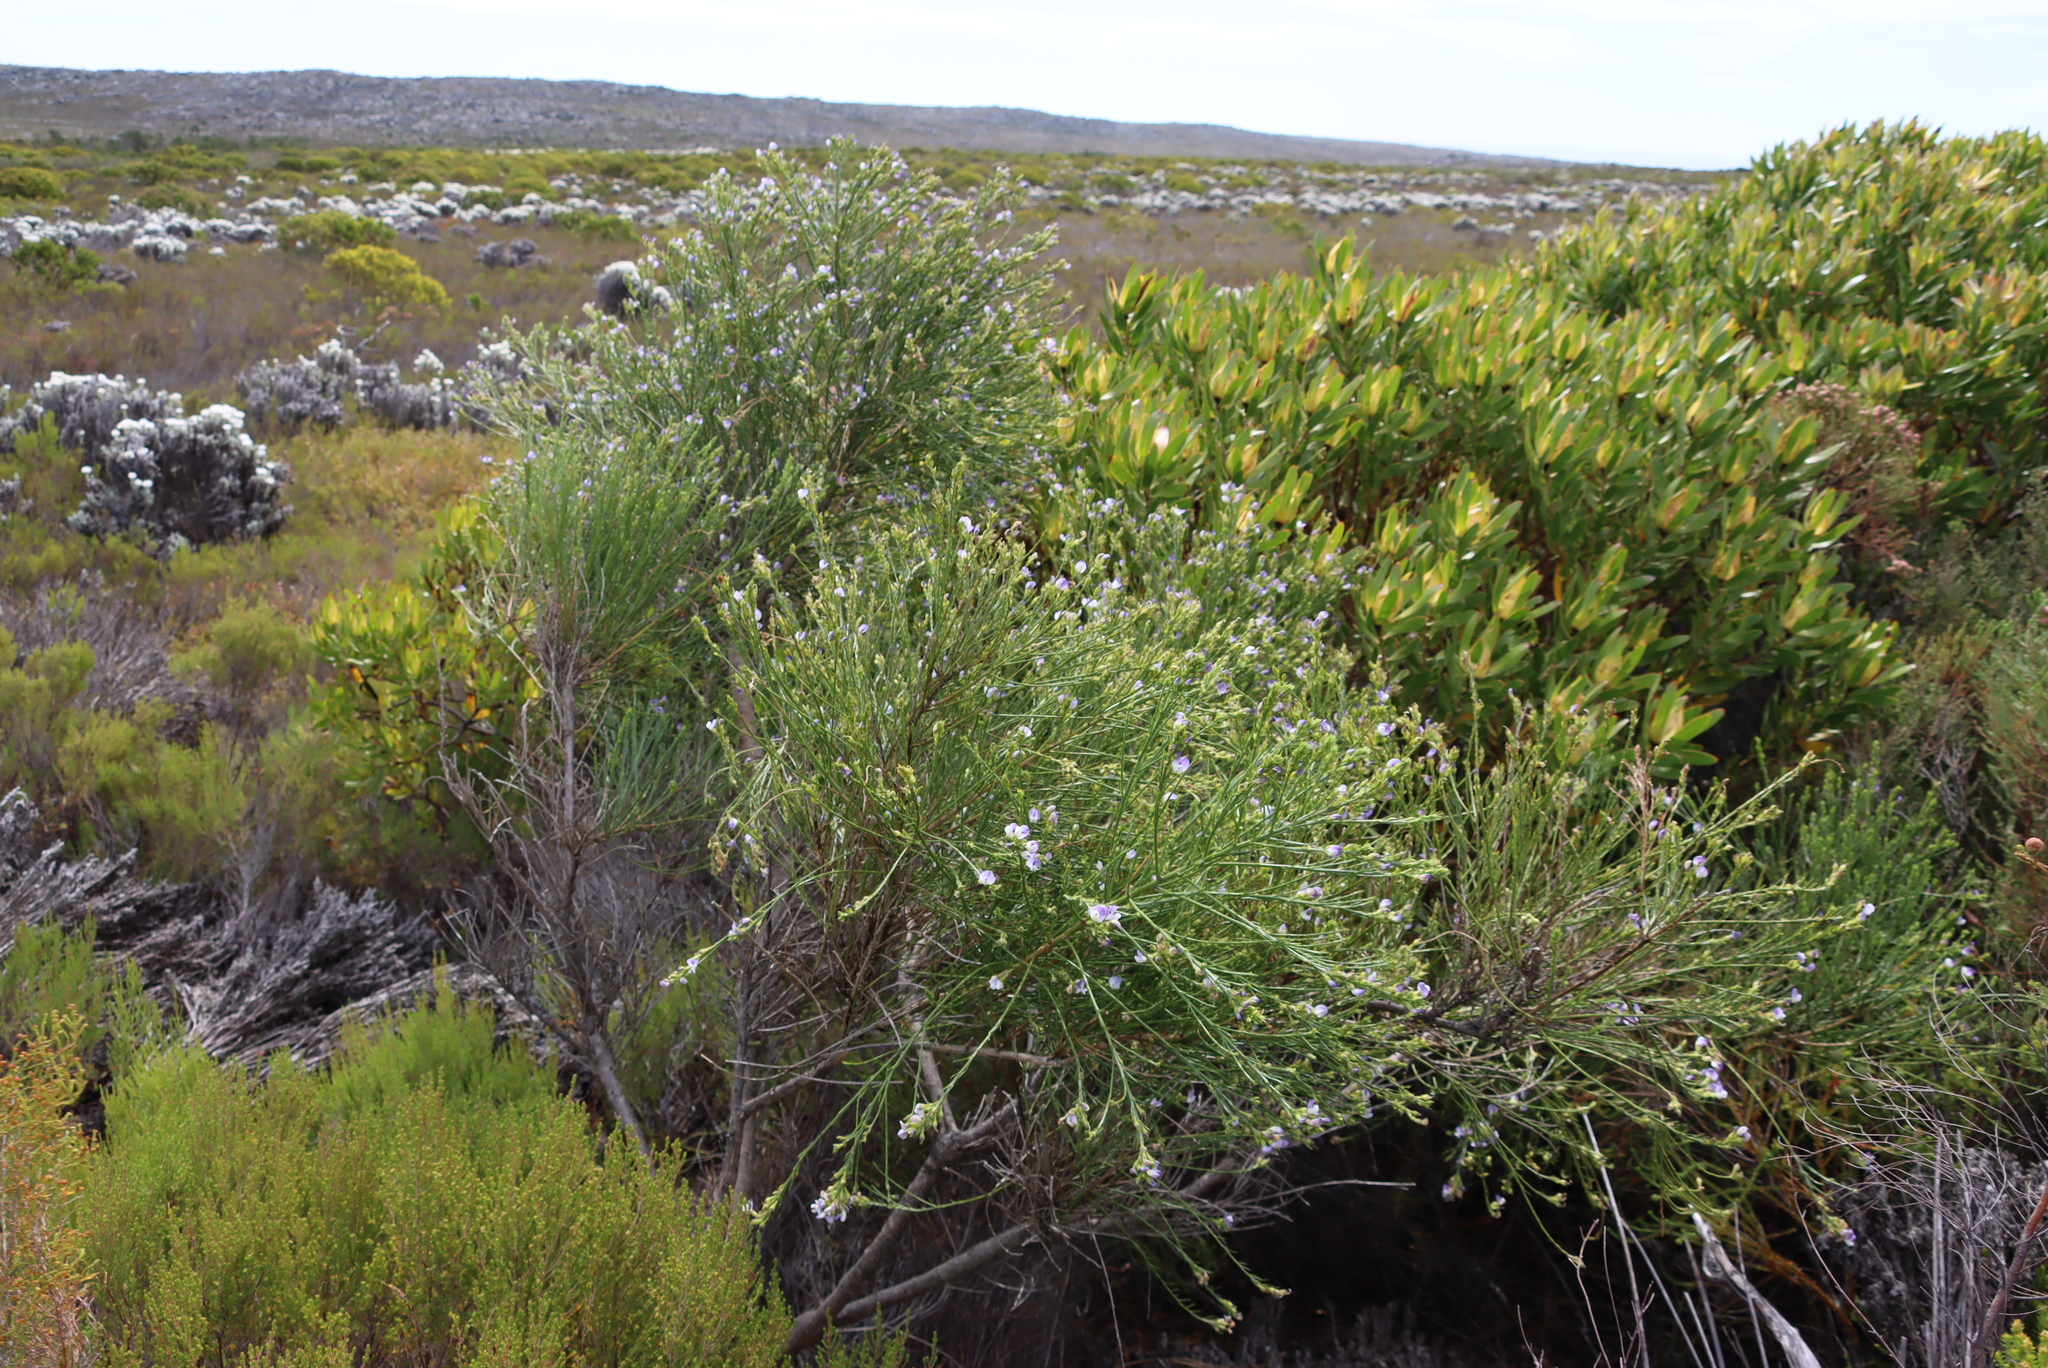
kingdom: Plantae
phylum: Tracheophyta
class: Magnoliopsida
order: Fabales
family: Fabaceae
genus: Psoralea
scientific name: Psoralea congesta
